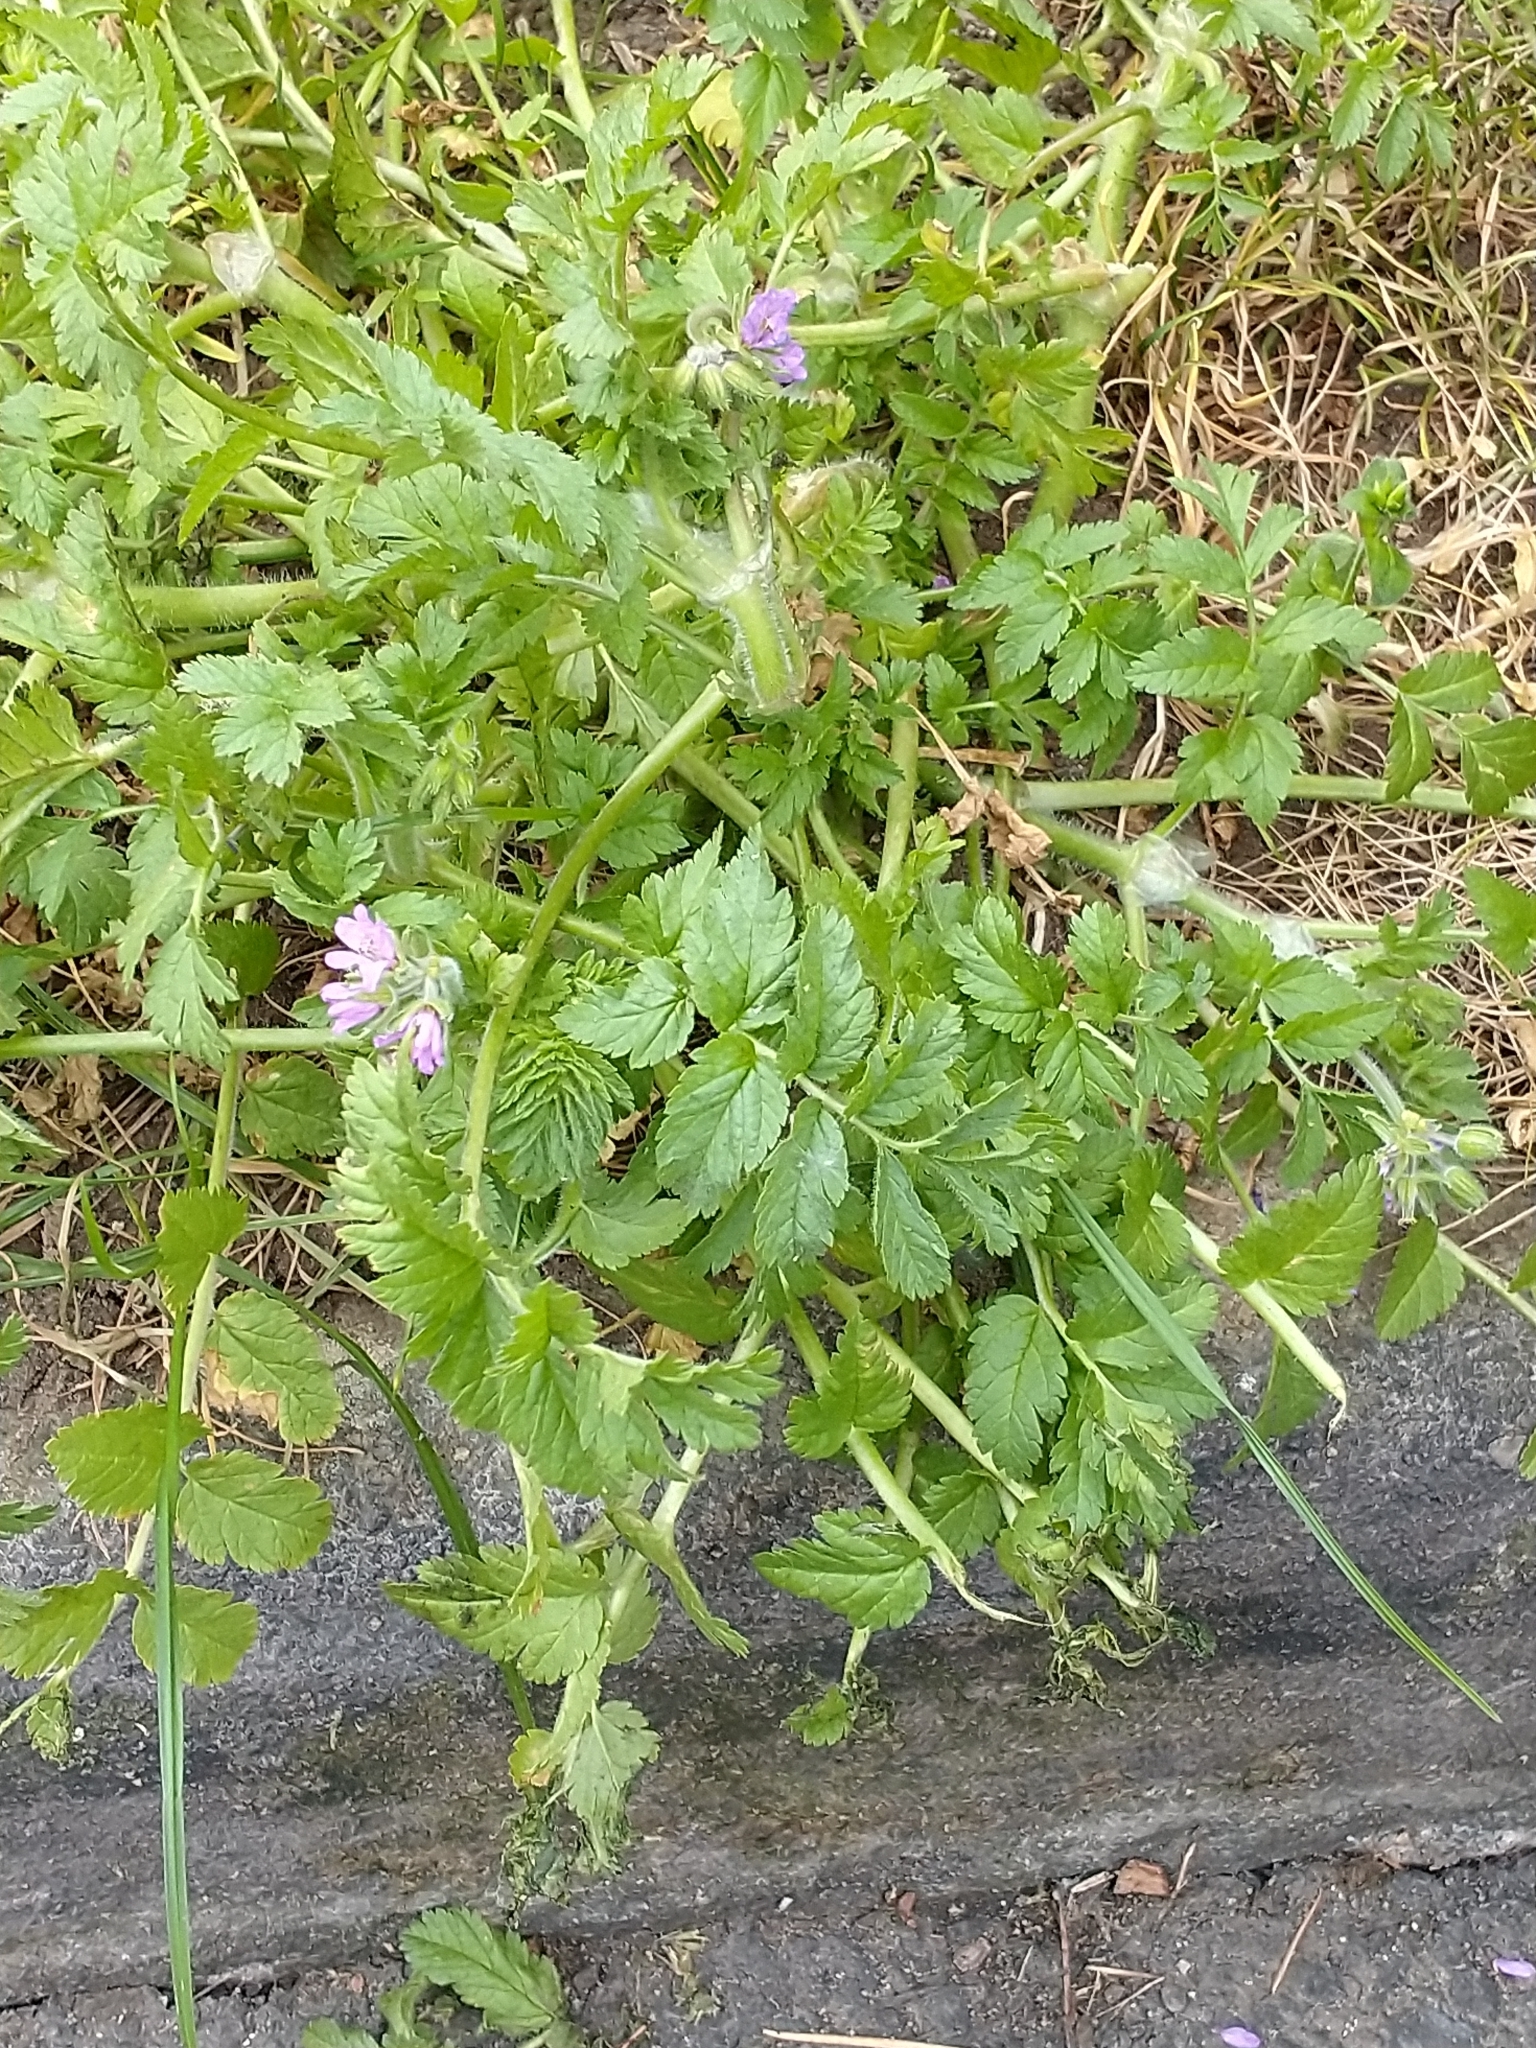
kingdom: Plantae
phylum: Tracheophyta
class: Magnoliopsida
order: Geraniales
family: Geraniaceae
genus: Erodium
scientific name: Erodium moschatum
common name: Musk stork's-bill
